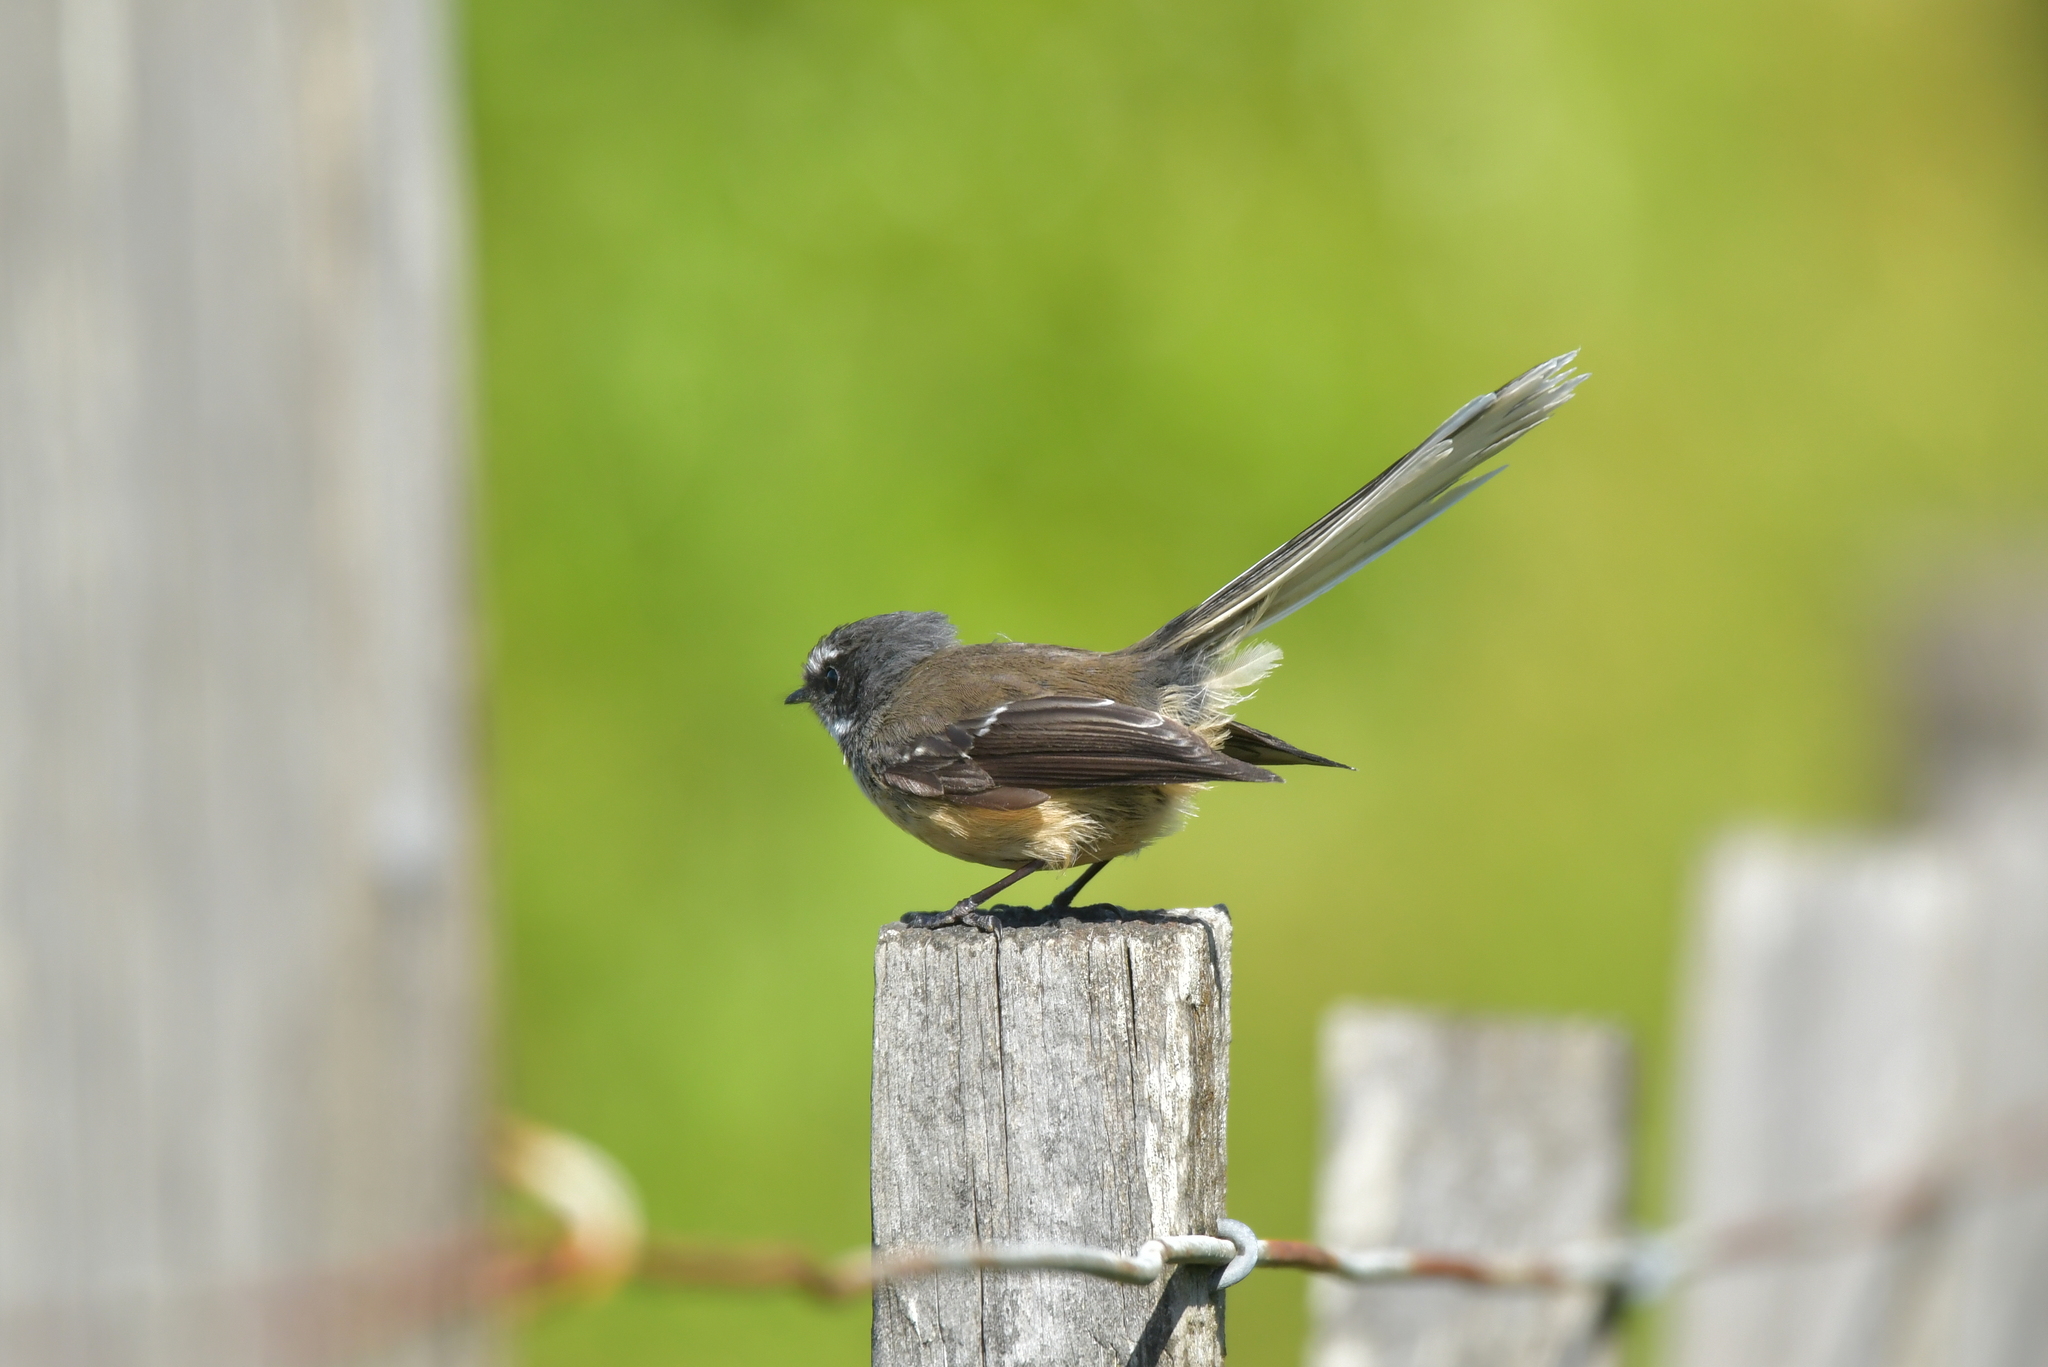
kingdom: Animalia
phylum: Chordata
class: Aves
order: Passeriformes
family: Rhipiduridae
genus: Rhipidura
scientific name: Rhipidura fuliginosa
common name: New zealand fantail
